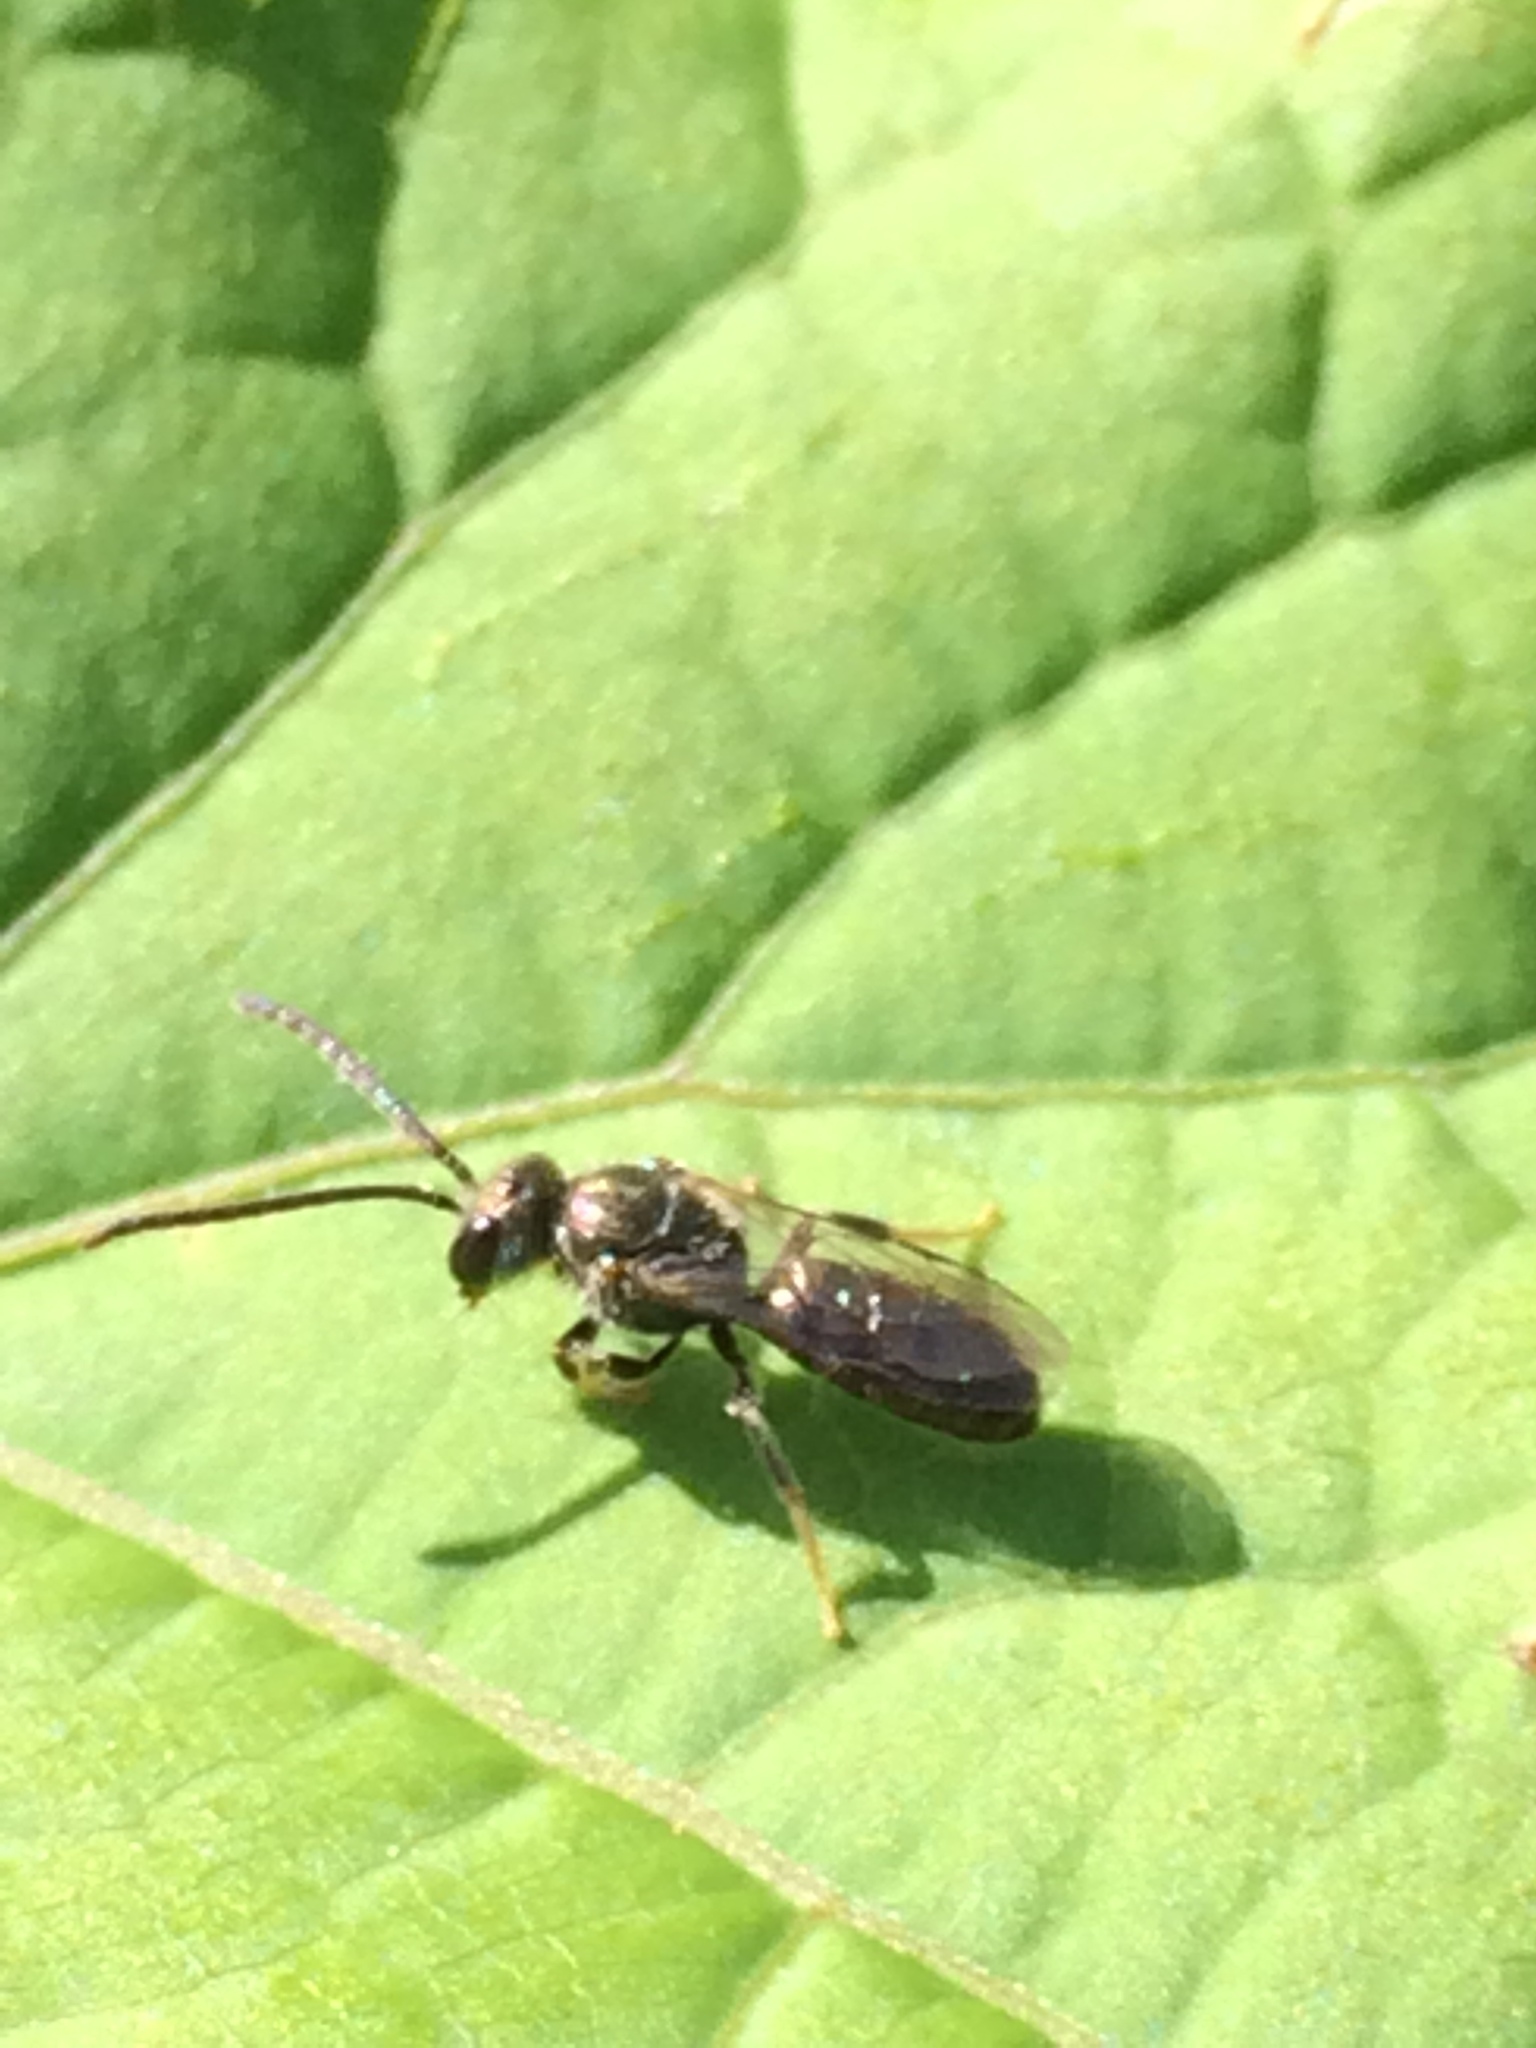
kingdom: Animalia
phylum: Arthropoda
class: Insecta
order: Hymenoptera
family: Halictidae
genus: Dialictus
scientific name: Dialictus
